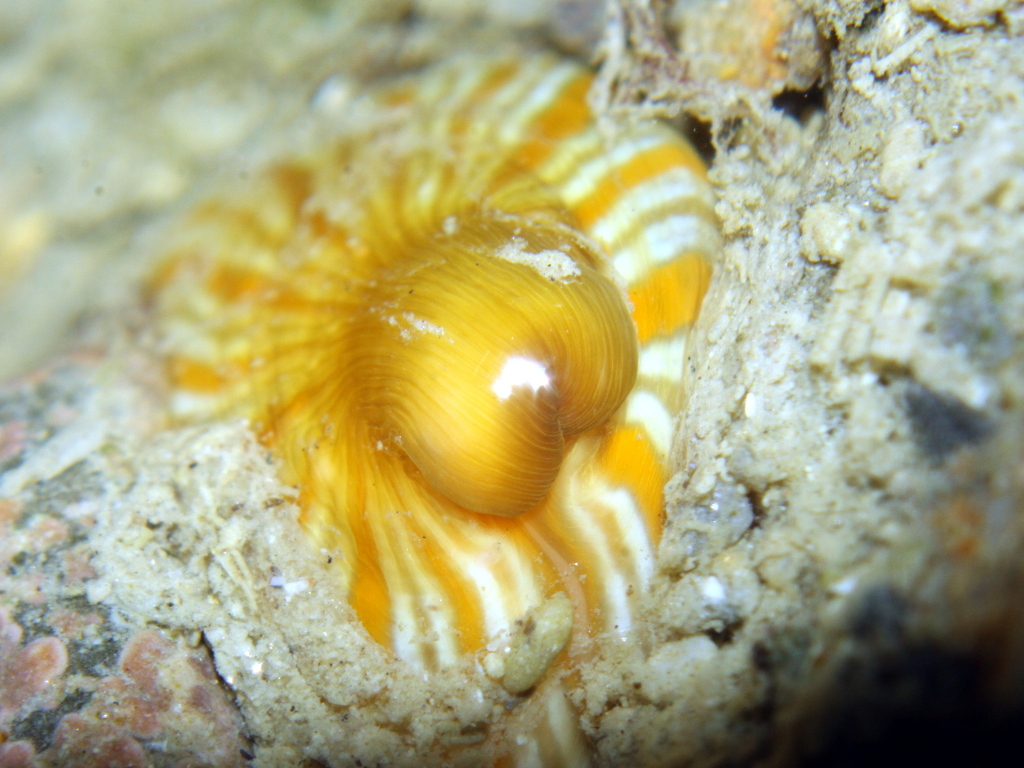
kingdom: Animalia
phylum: Cnidaria
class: Anthozoa
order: Actiniaria
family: Sagartiidae
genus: Anthothoe
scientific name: Anthothoe albocincta
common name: Orange striped anemone
